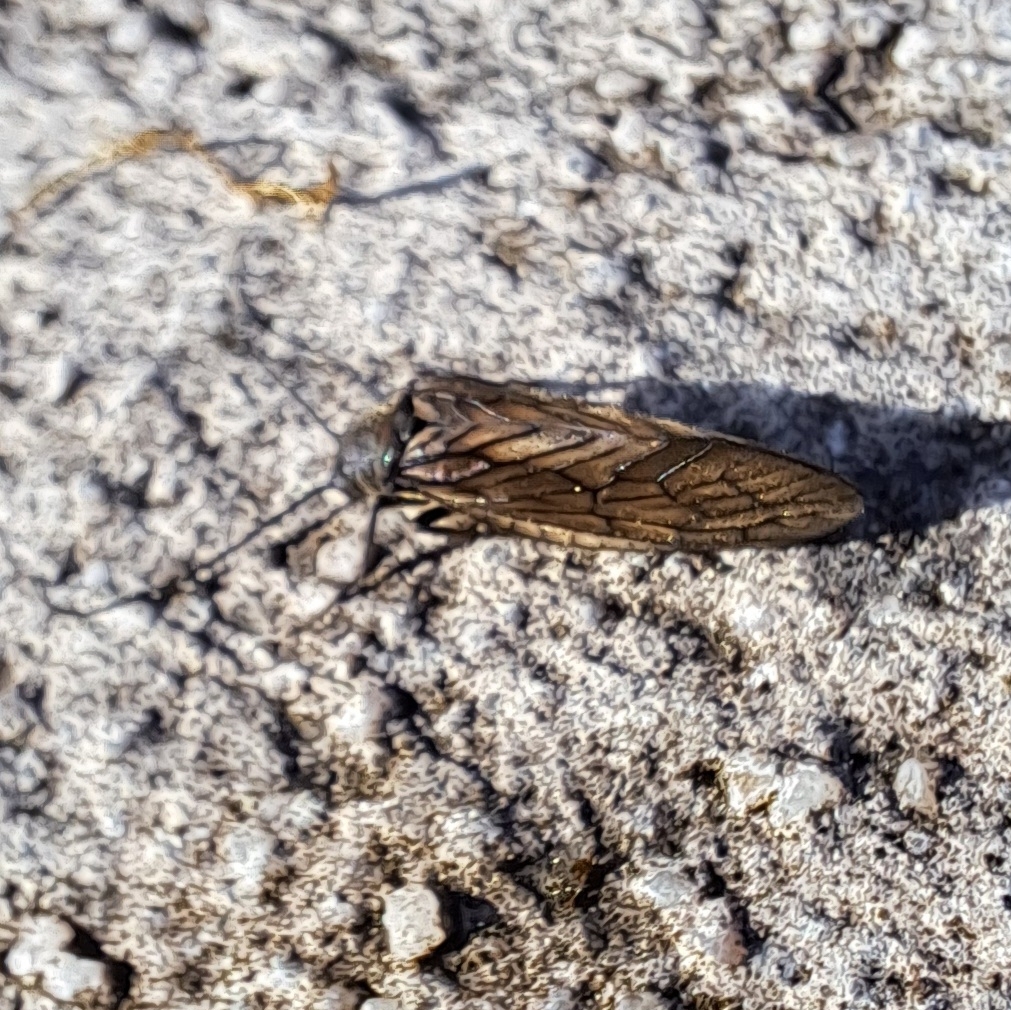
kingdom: Animalia
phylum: Arthropoda
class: Insecta
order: Megaloptera
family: Sialidae
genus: Sialis
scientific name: Sialis
